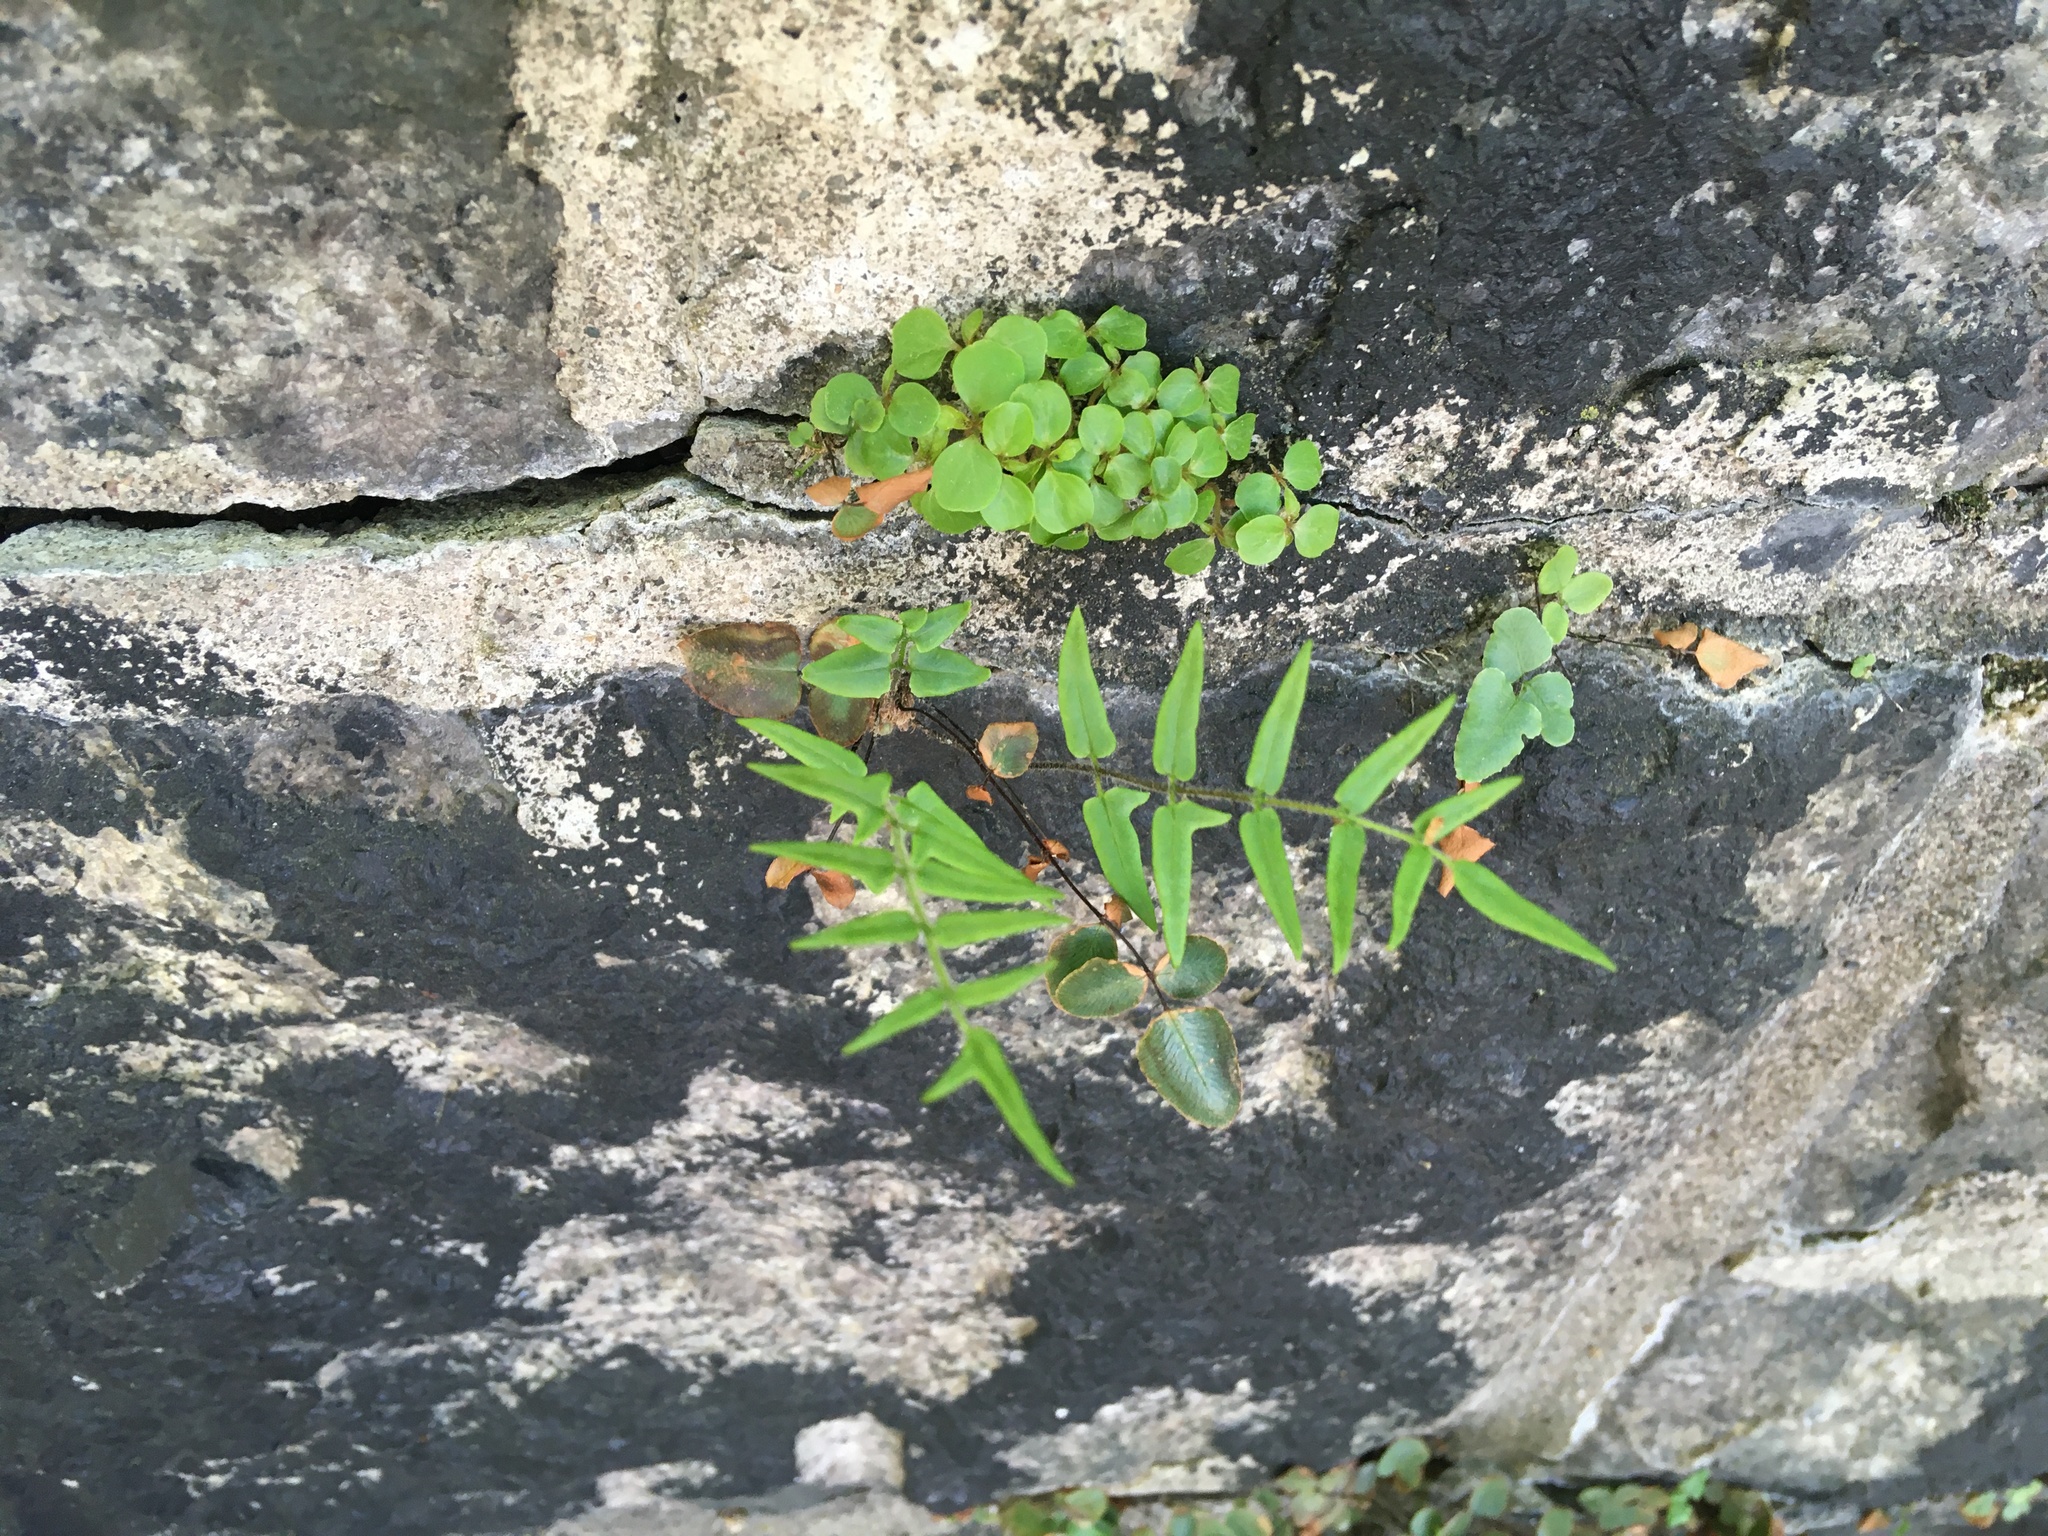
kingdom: Plantae
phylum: Tracheophyta
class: Polypodiopsida
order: Polypodiales
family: Pteridaceae
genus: Pellaea
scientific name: Pellaea atropurpurea
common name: Hairy cliffbrake
